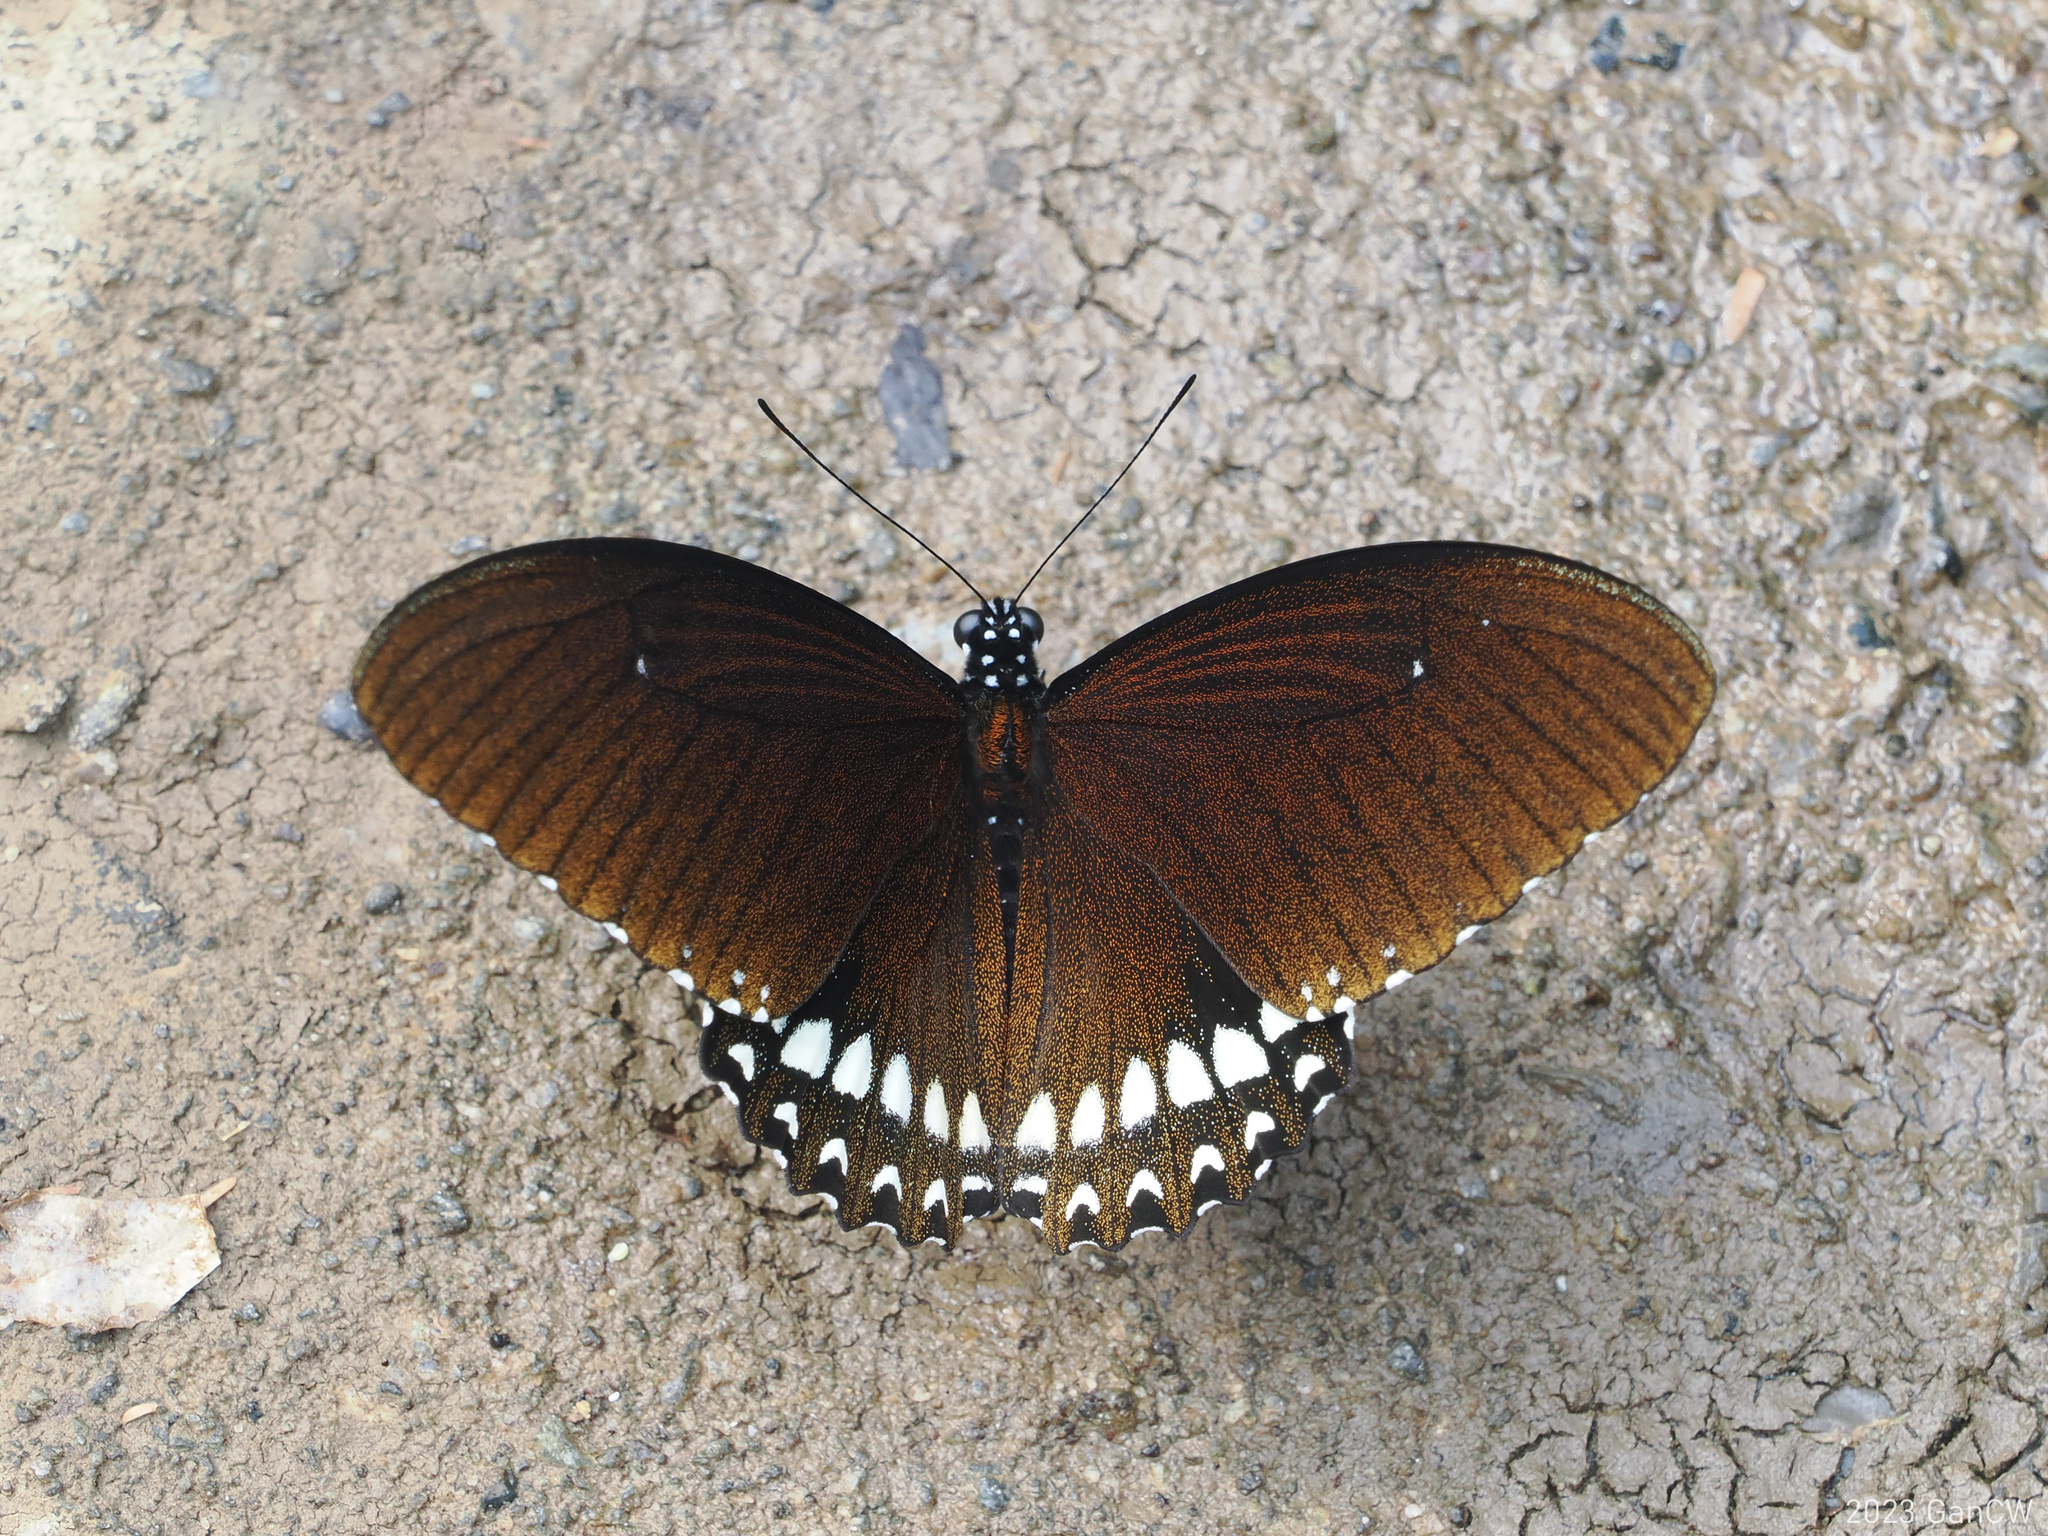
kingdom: Animalia
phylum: Arthropoda
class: Insecta
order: Lepidoptera
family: Papilionidae
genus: Papilio
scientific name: Papilio castor
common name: Common raven
